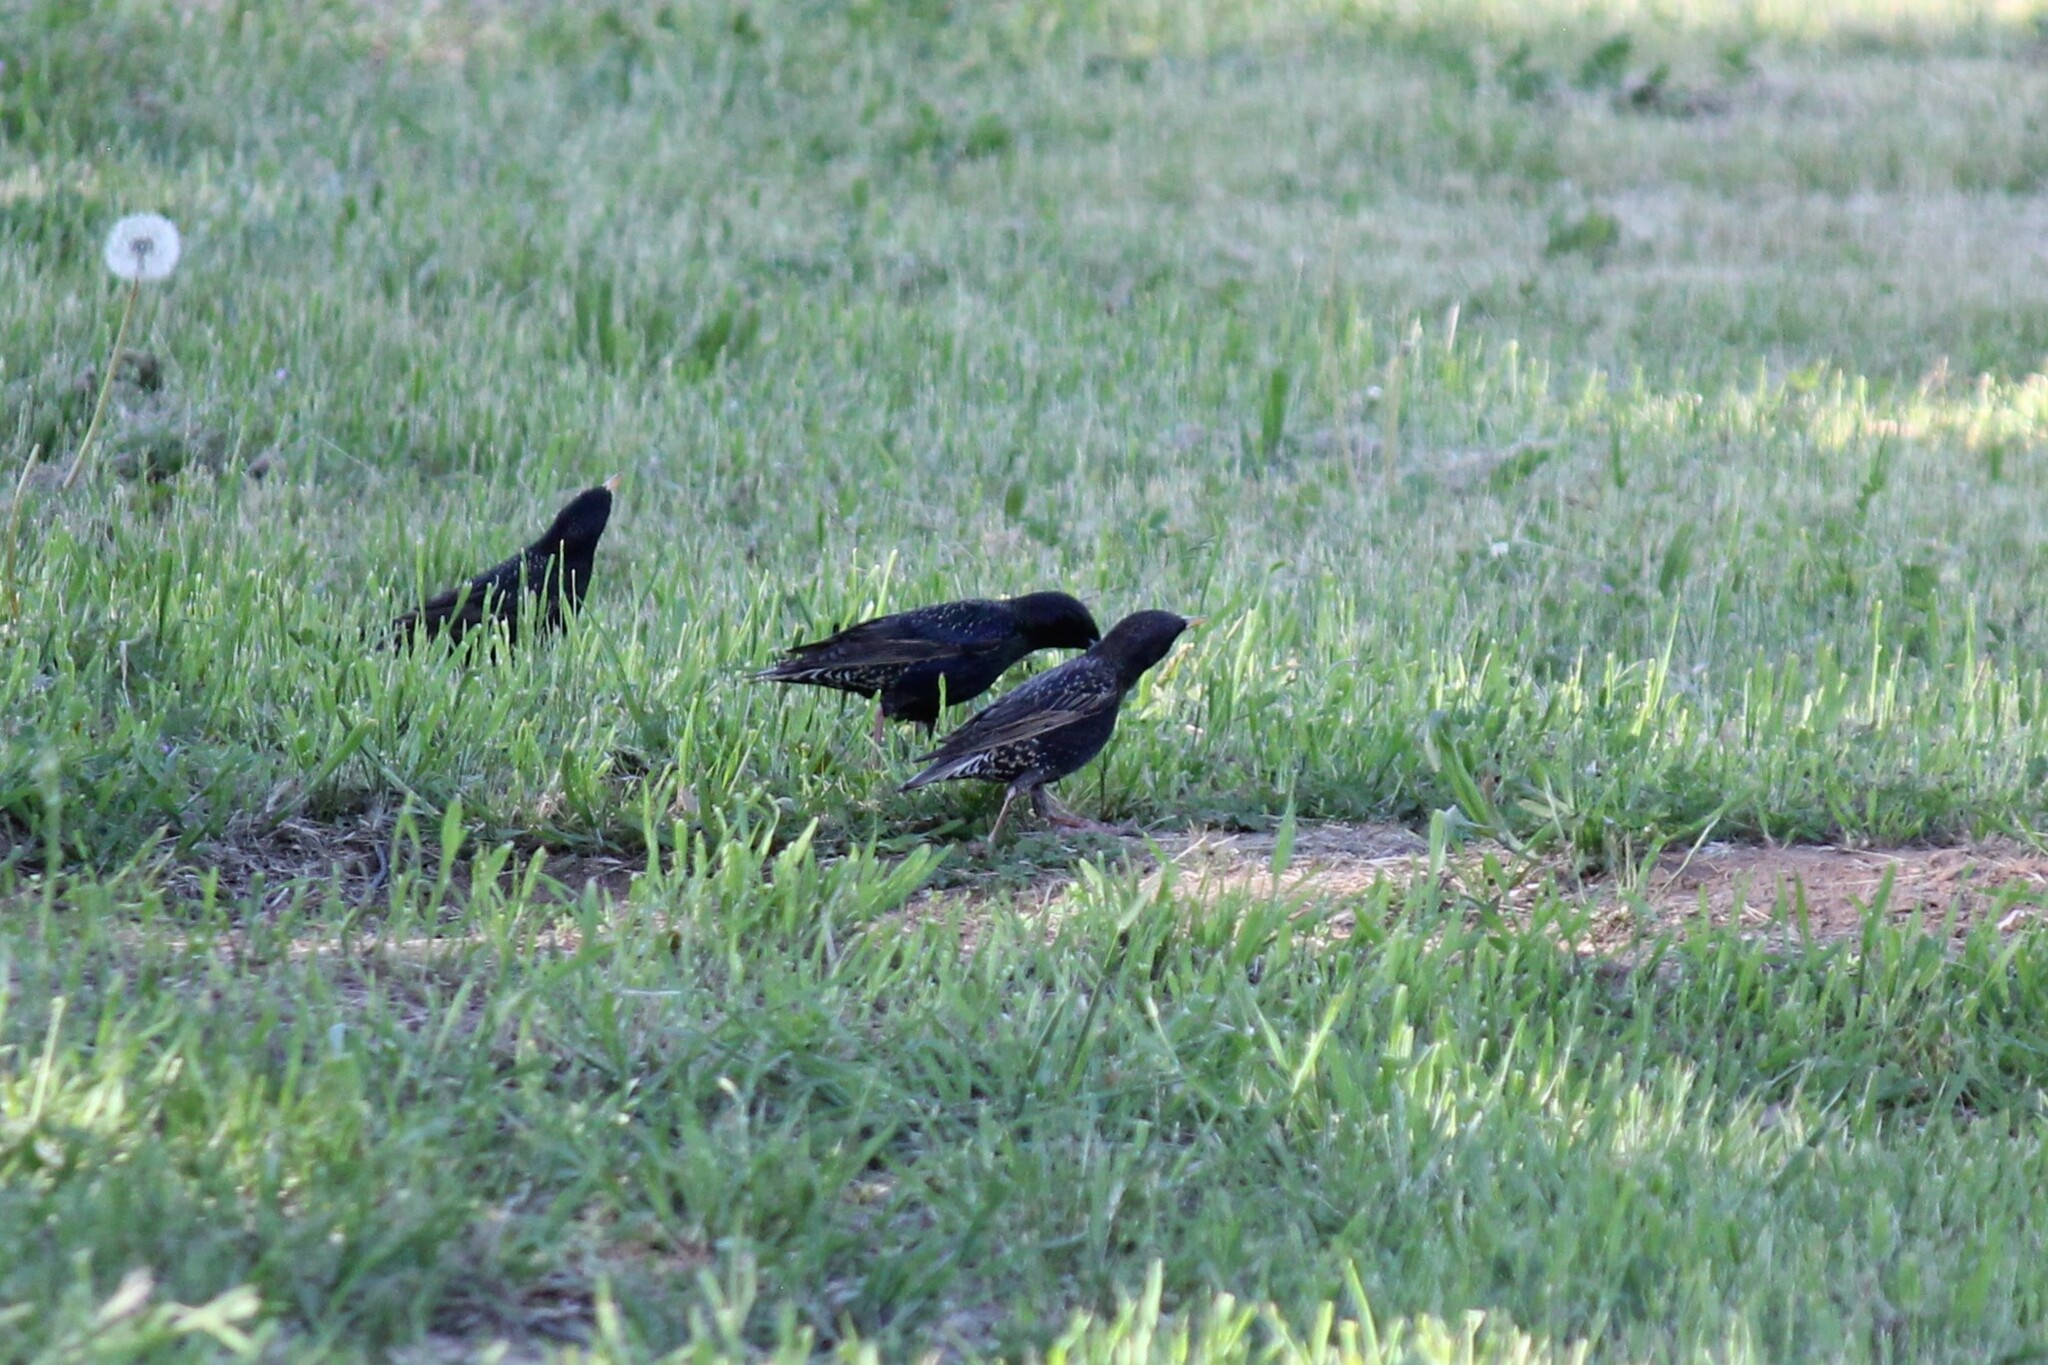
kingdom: Animalia
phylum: Chordata
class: Aves
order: Passeriformes
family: Sturnidae
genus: Sturnus
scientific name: Sturnus vulgaris
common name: Common starling
